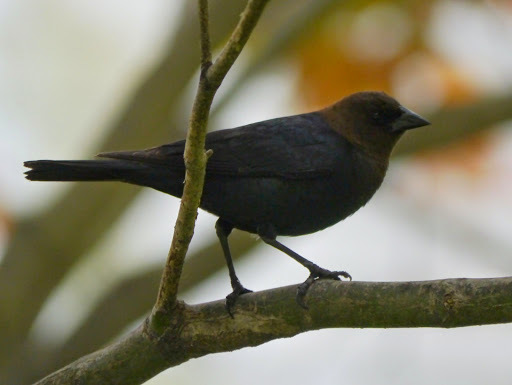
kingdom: Animalia
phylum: Chordata
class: Aves
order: Passeriformes
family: Icteridae
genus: Molothrus
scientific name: Molothrus ater
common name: Brown-headed cowbird
